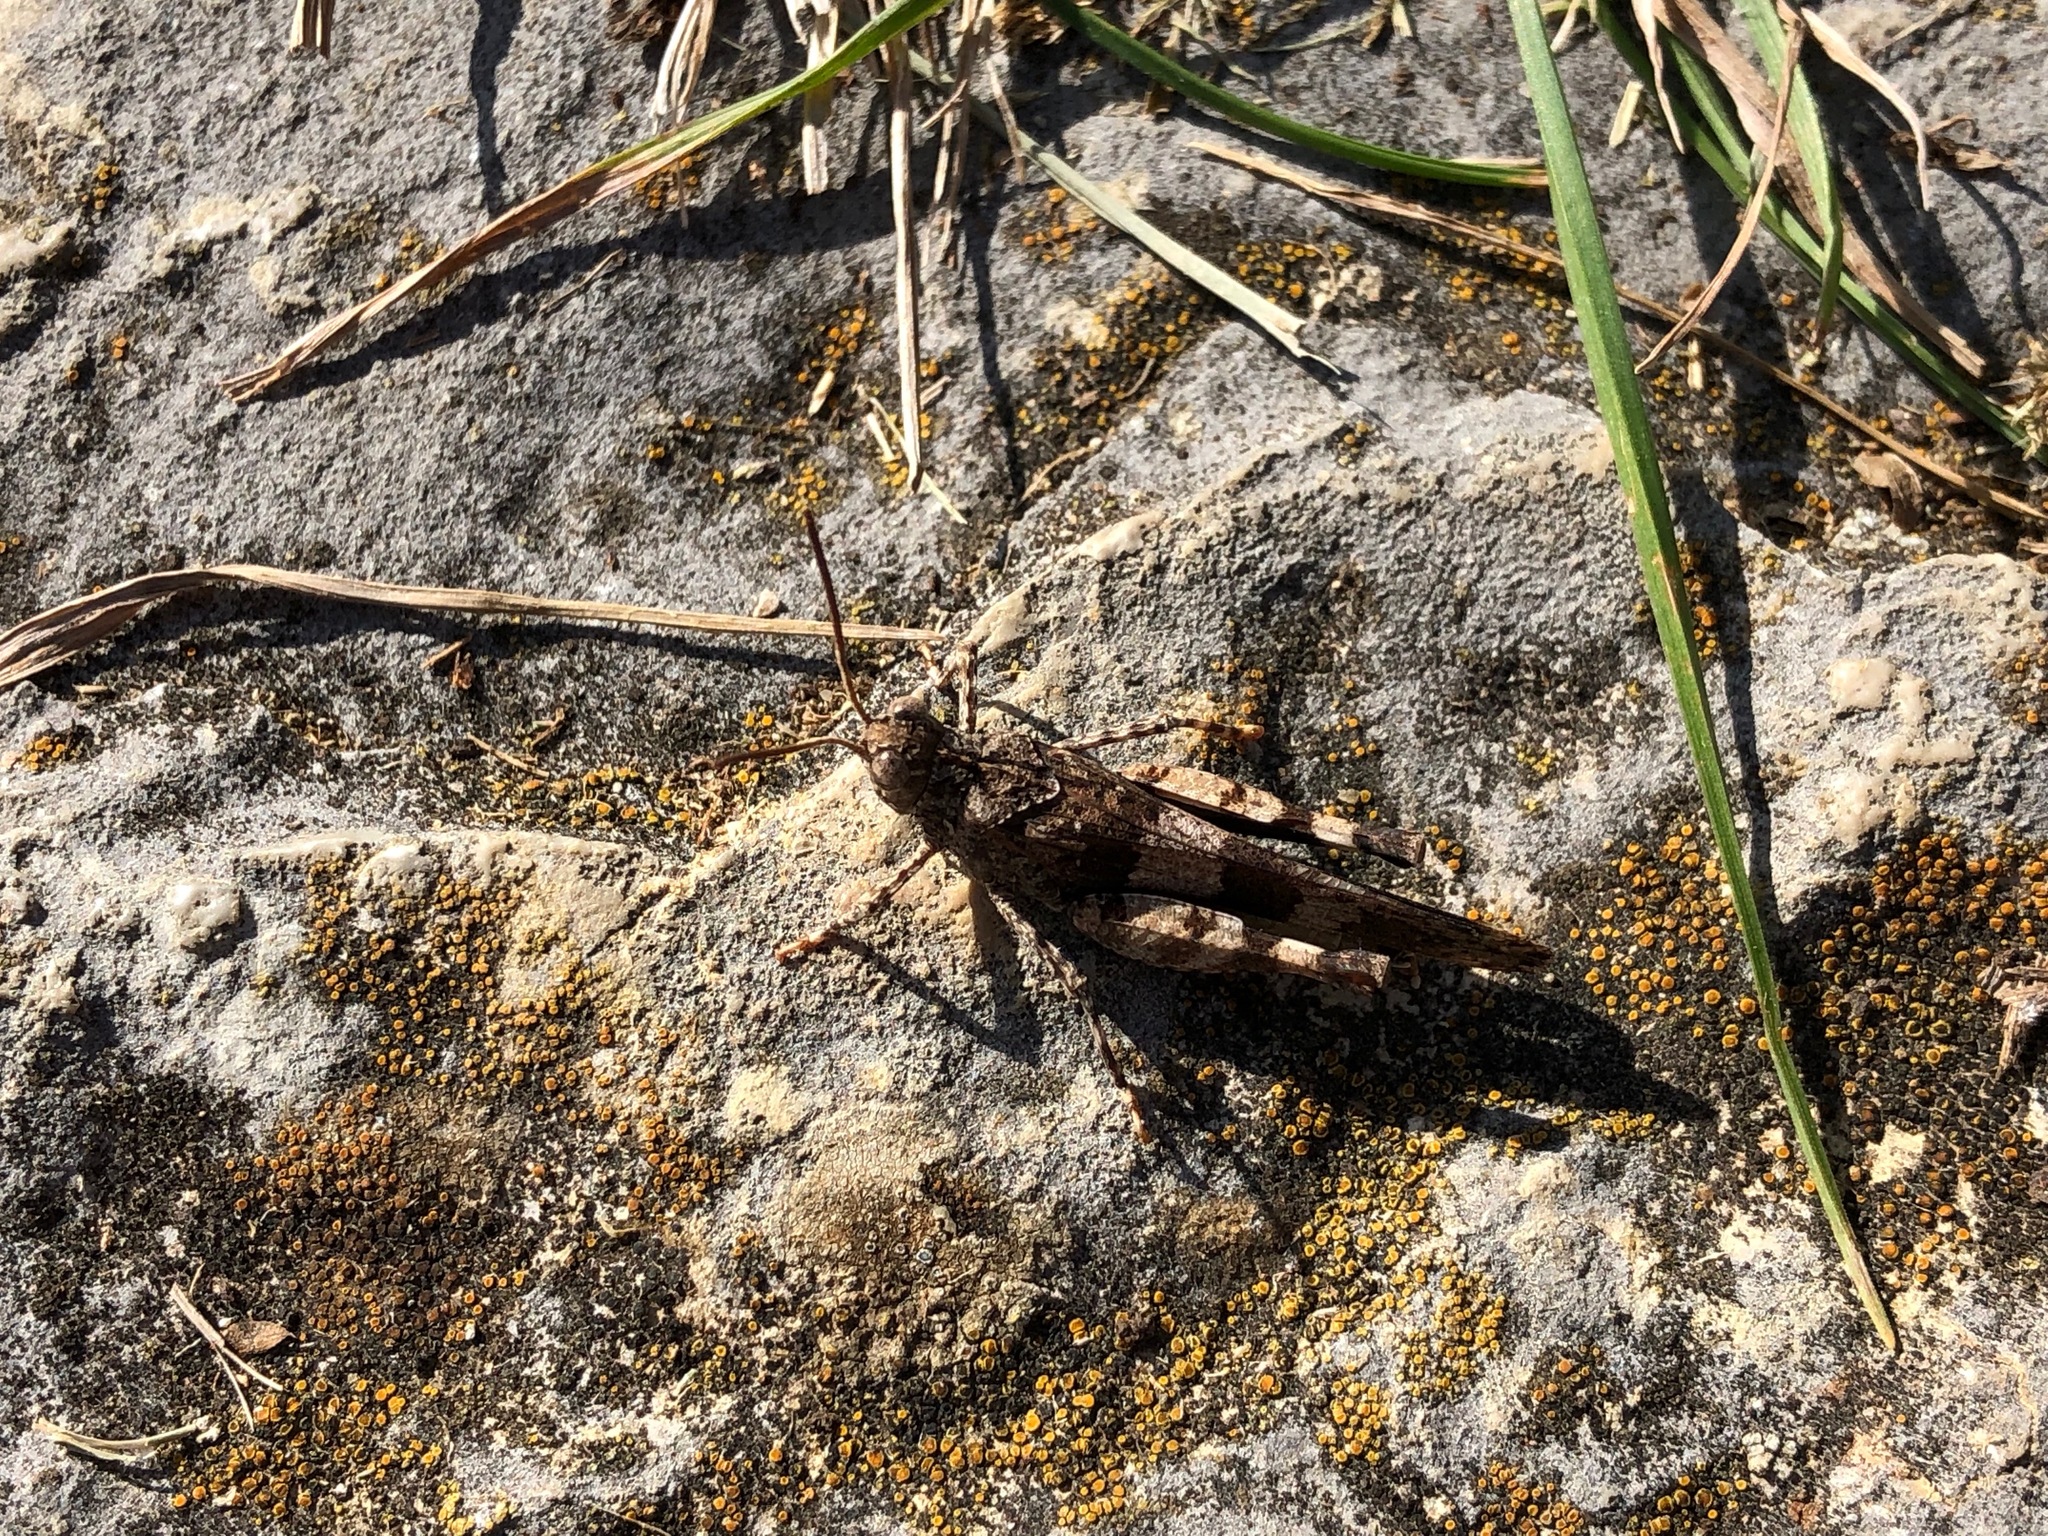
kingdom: Animalia
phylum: Arthropoda
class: Insecta
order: Orthoptera
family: Acrididae
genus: Oedipoda
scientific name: Oedipoda caerulescens
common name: Blue-winged grasshopper
